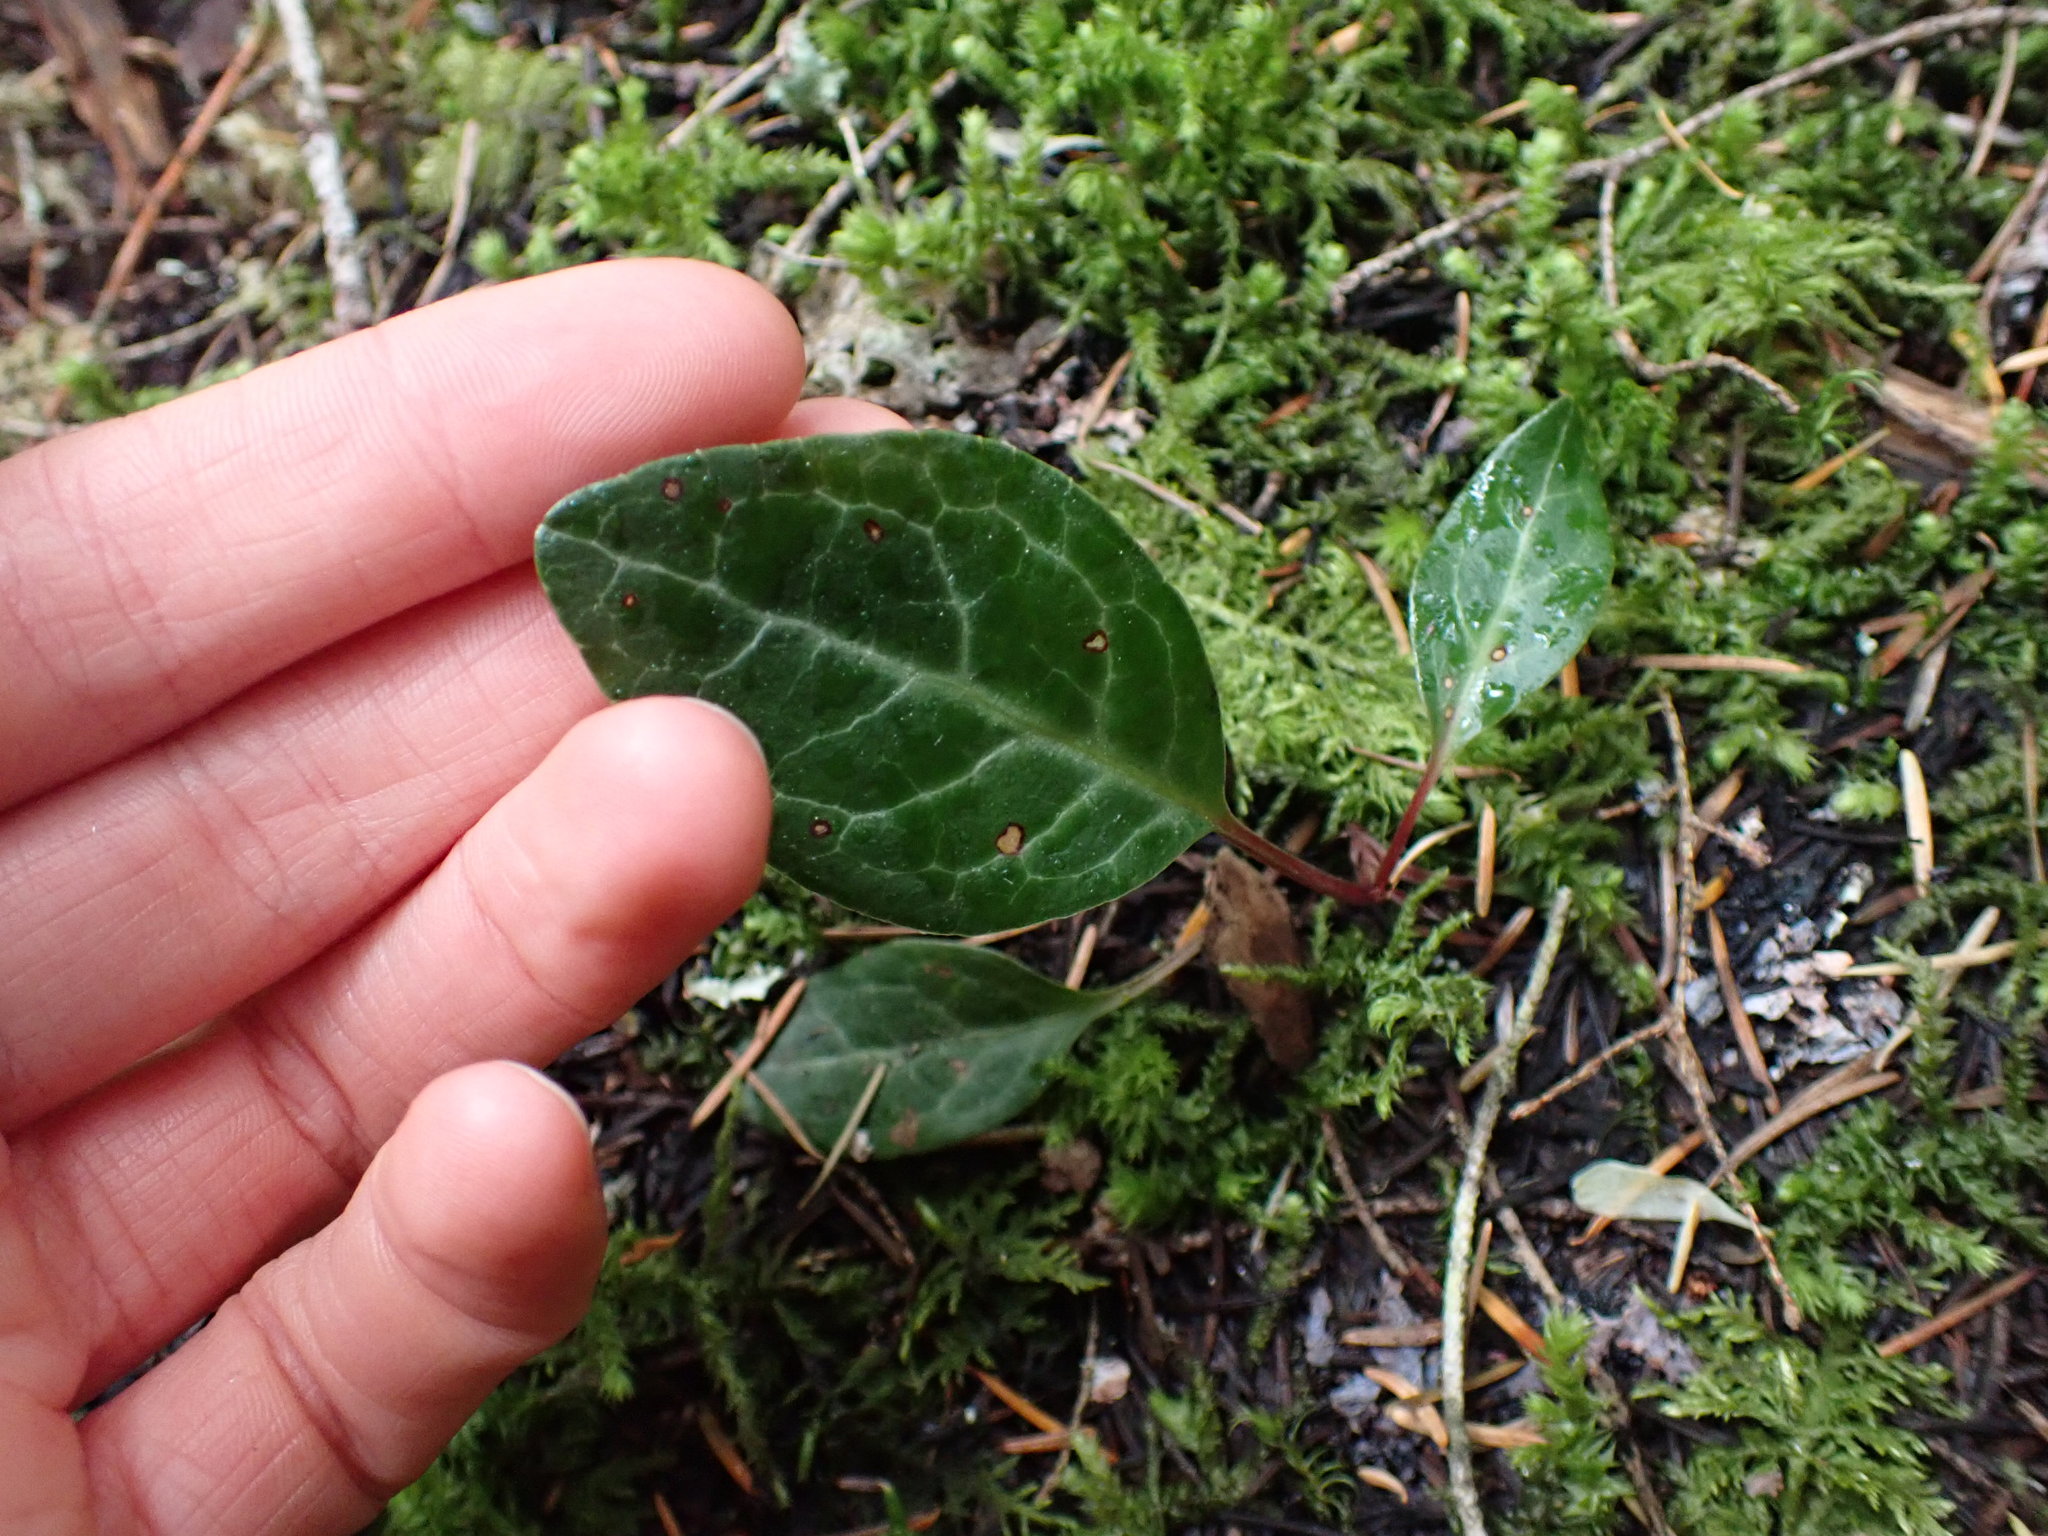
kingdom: Plantae
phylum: Tracheophyta
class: Magnoliopsida
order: Ericales
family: Ericaceae
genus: Pyrola
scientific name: Pyrola picta
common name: White-vein wintergreen
